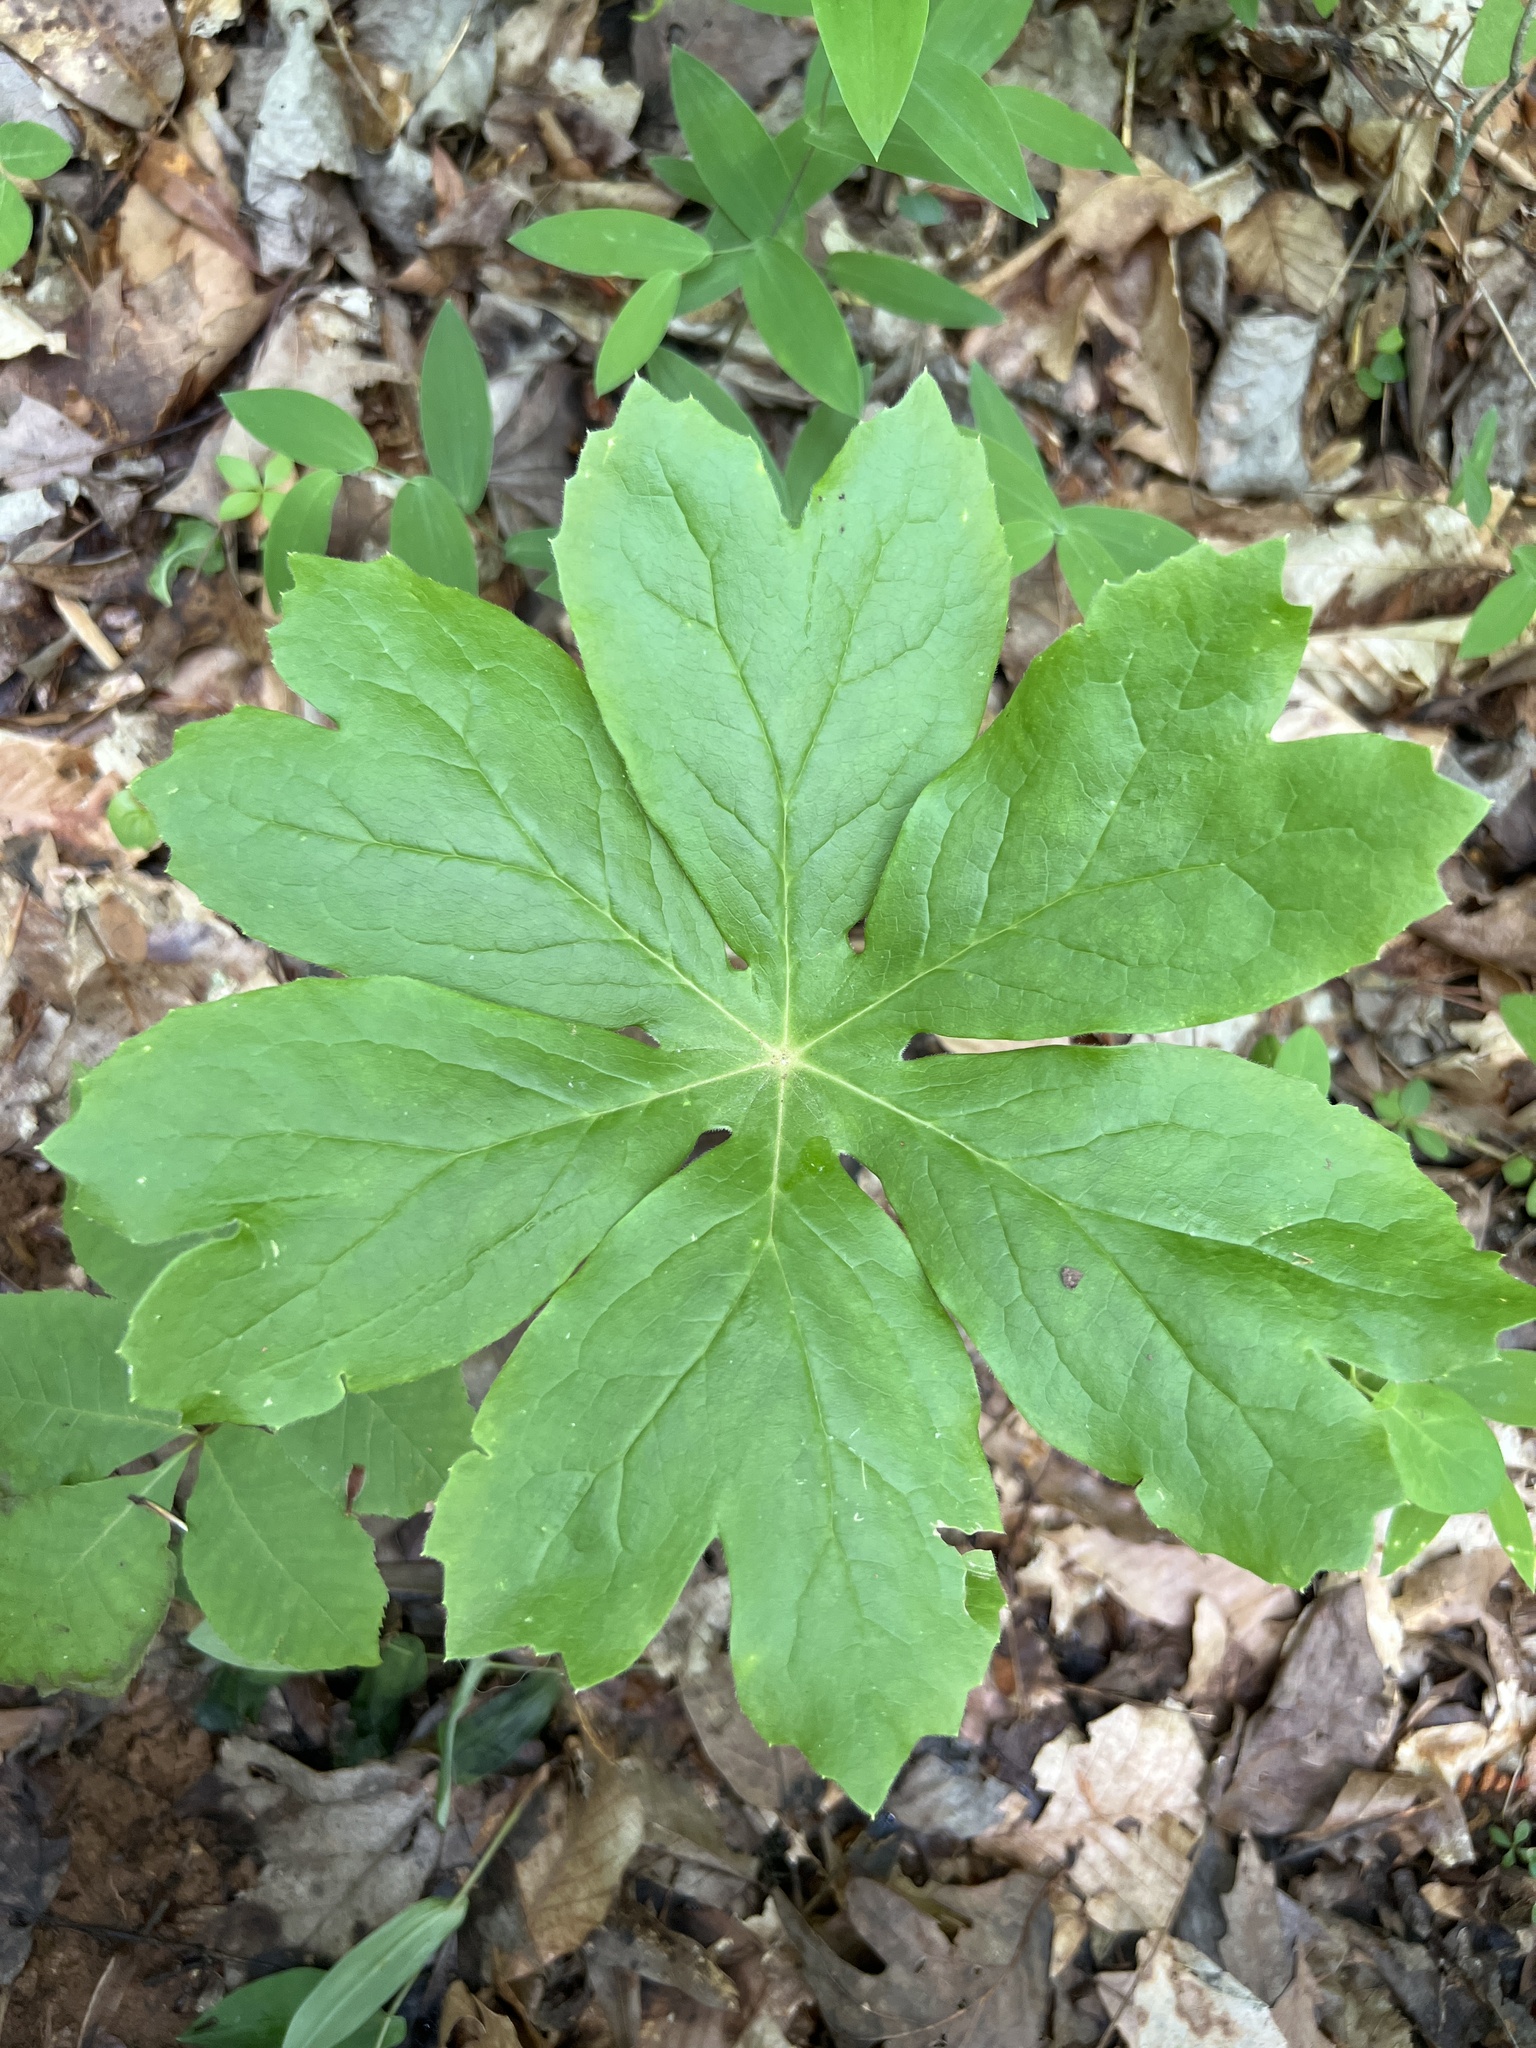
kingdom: Plantae
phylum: Tracheophyta
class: Magnoliopsida
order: Ranunculales
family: Berberidaceae
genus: Podophyllum
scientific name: Podophyllum peltatum
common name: Wild mandrake
